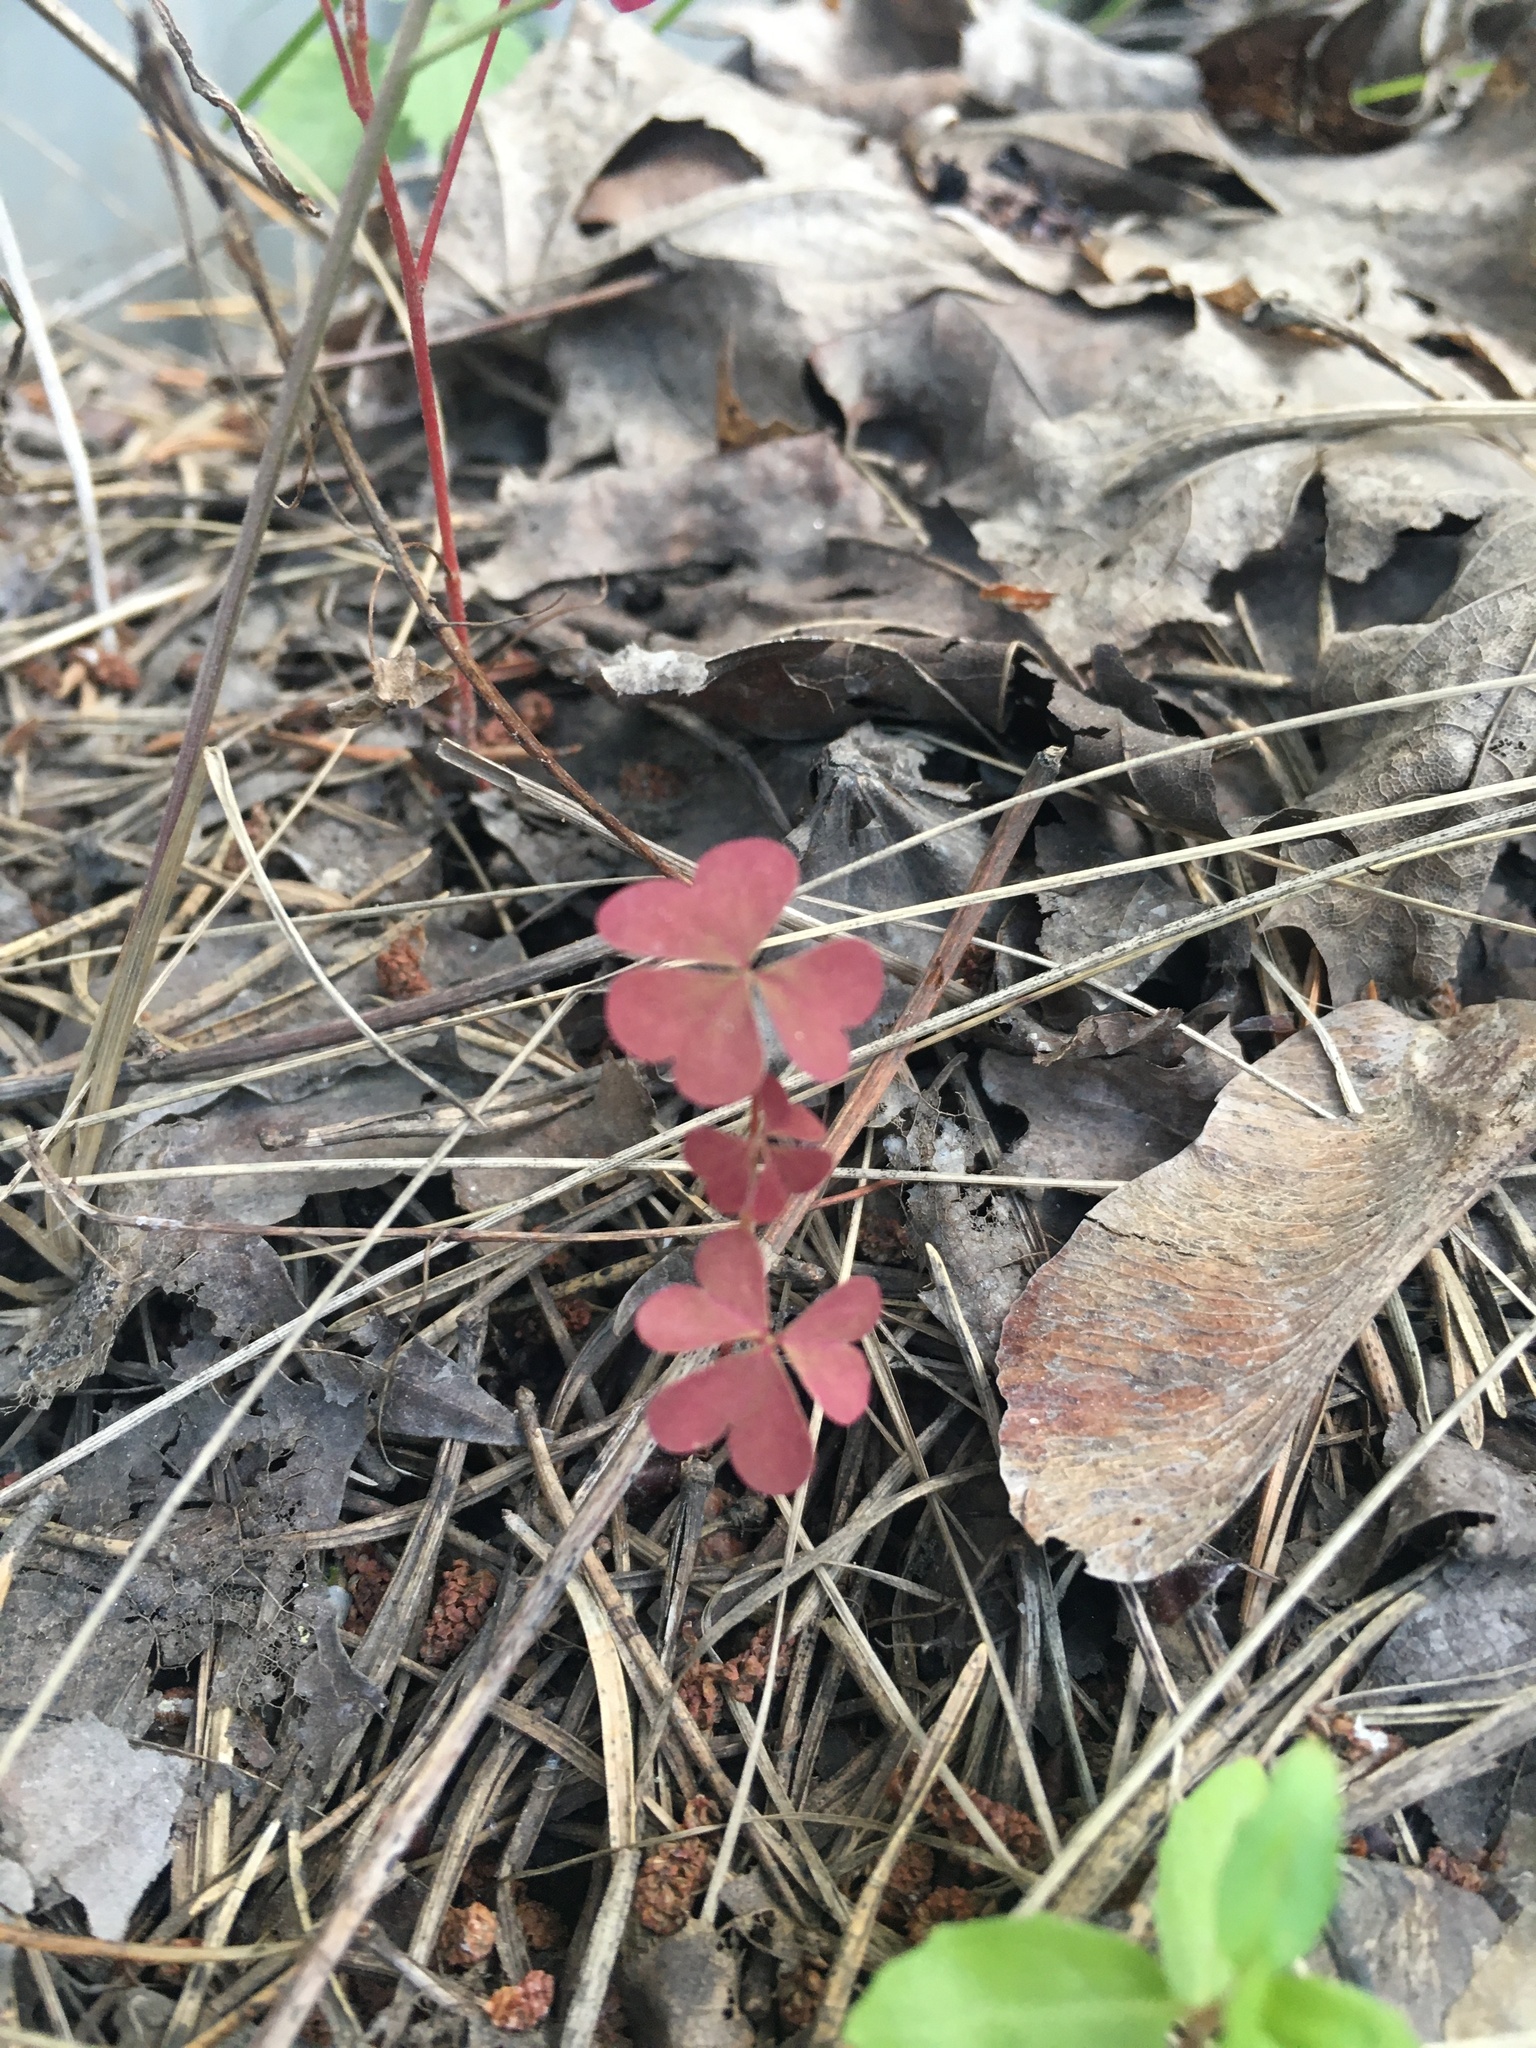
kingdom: Plantae
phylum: Tracheophyta
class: Magnoliopsida
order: Oxalidales
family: Oxalidaceae
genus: Oxalis
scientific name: Oxalis stricta
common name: Upright yellow-sorrel
